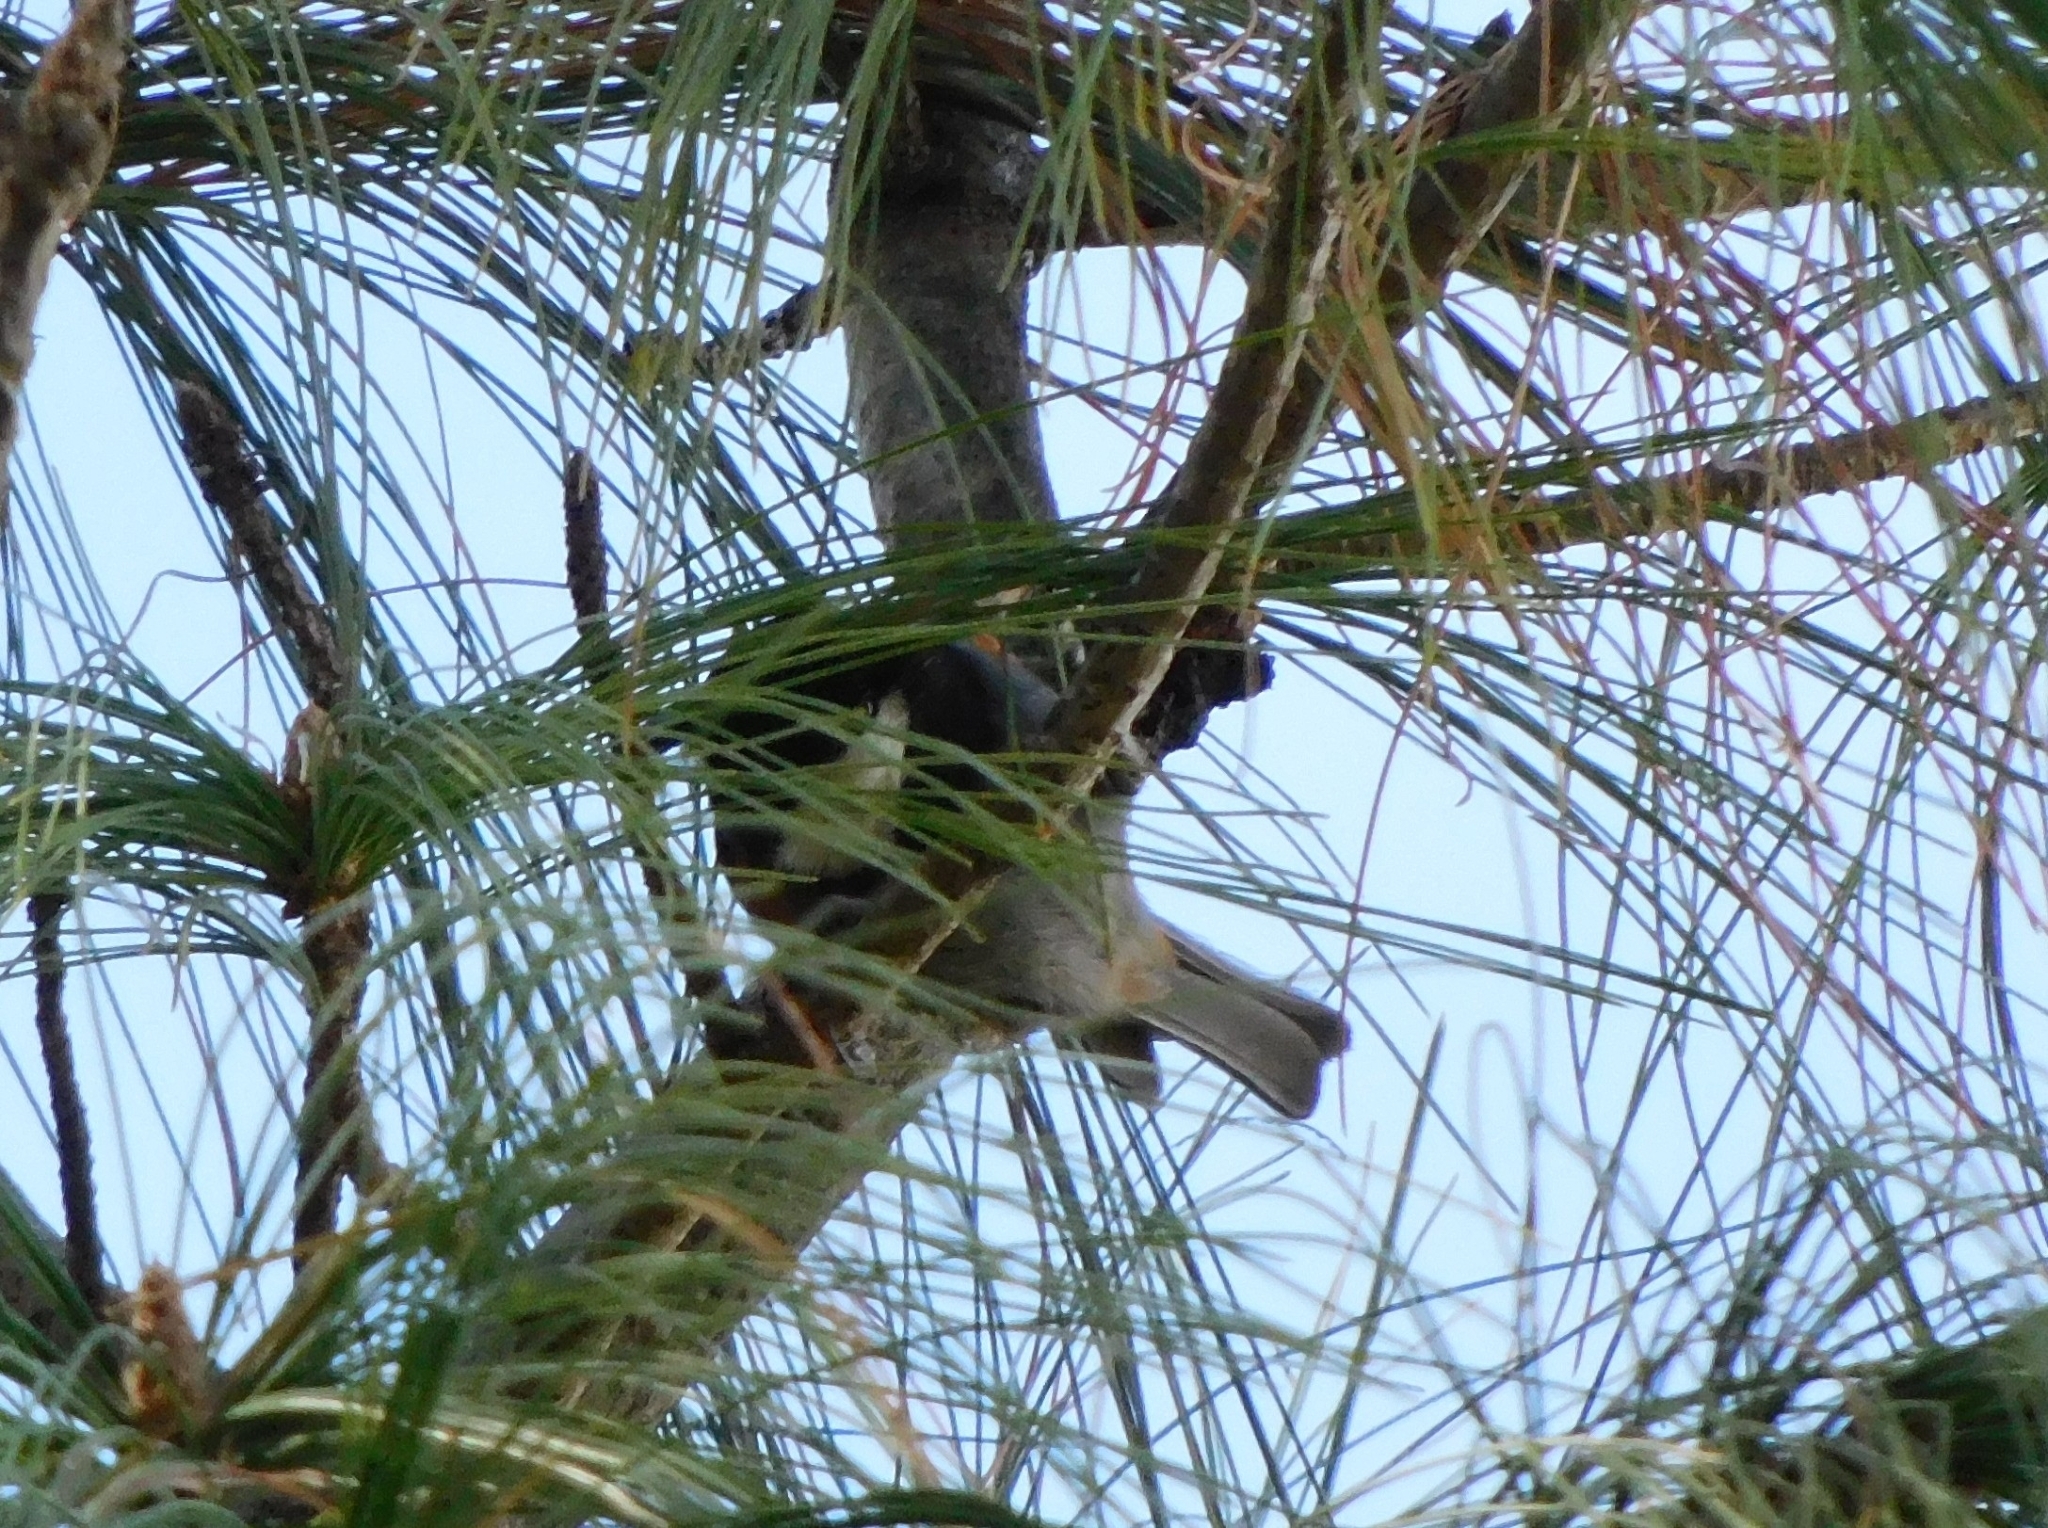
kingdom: Animalia
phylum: Chordata
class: Aves
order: Passeriformes
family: Paridae
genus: Periparus
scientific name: Periparus ater
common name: Coal tit
